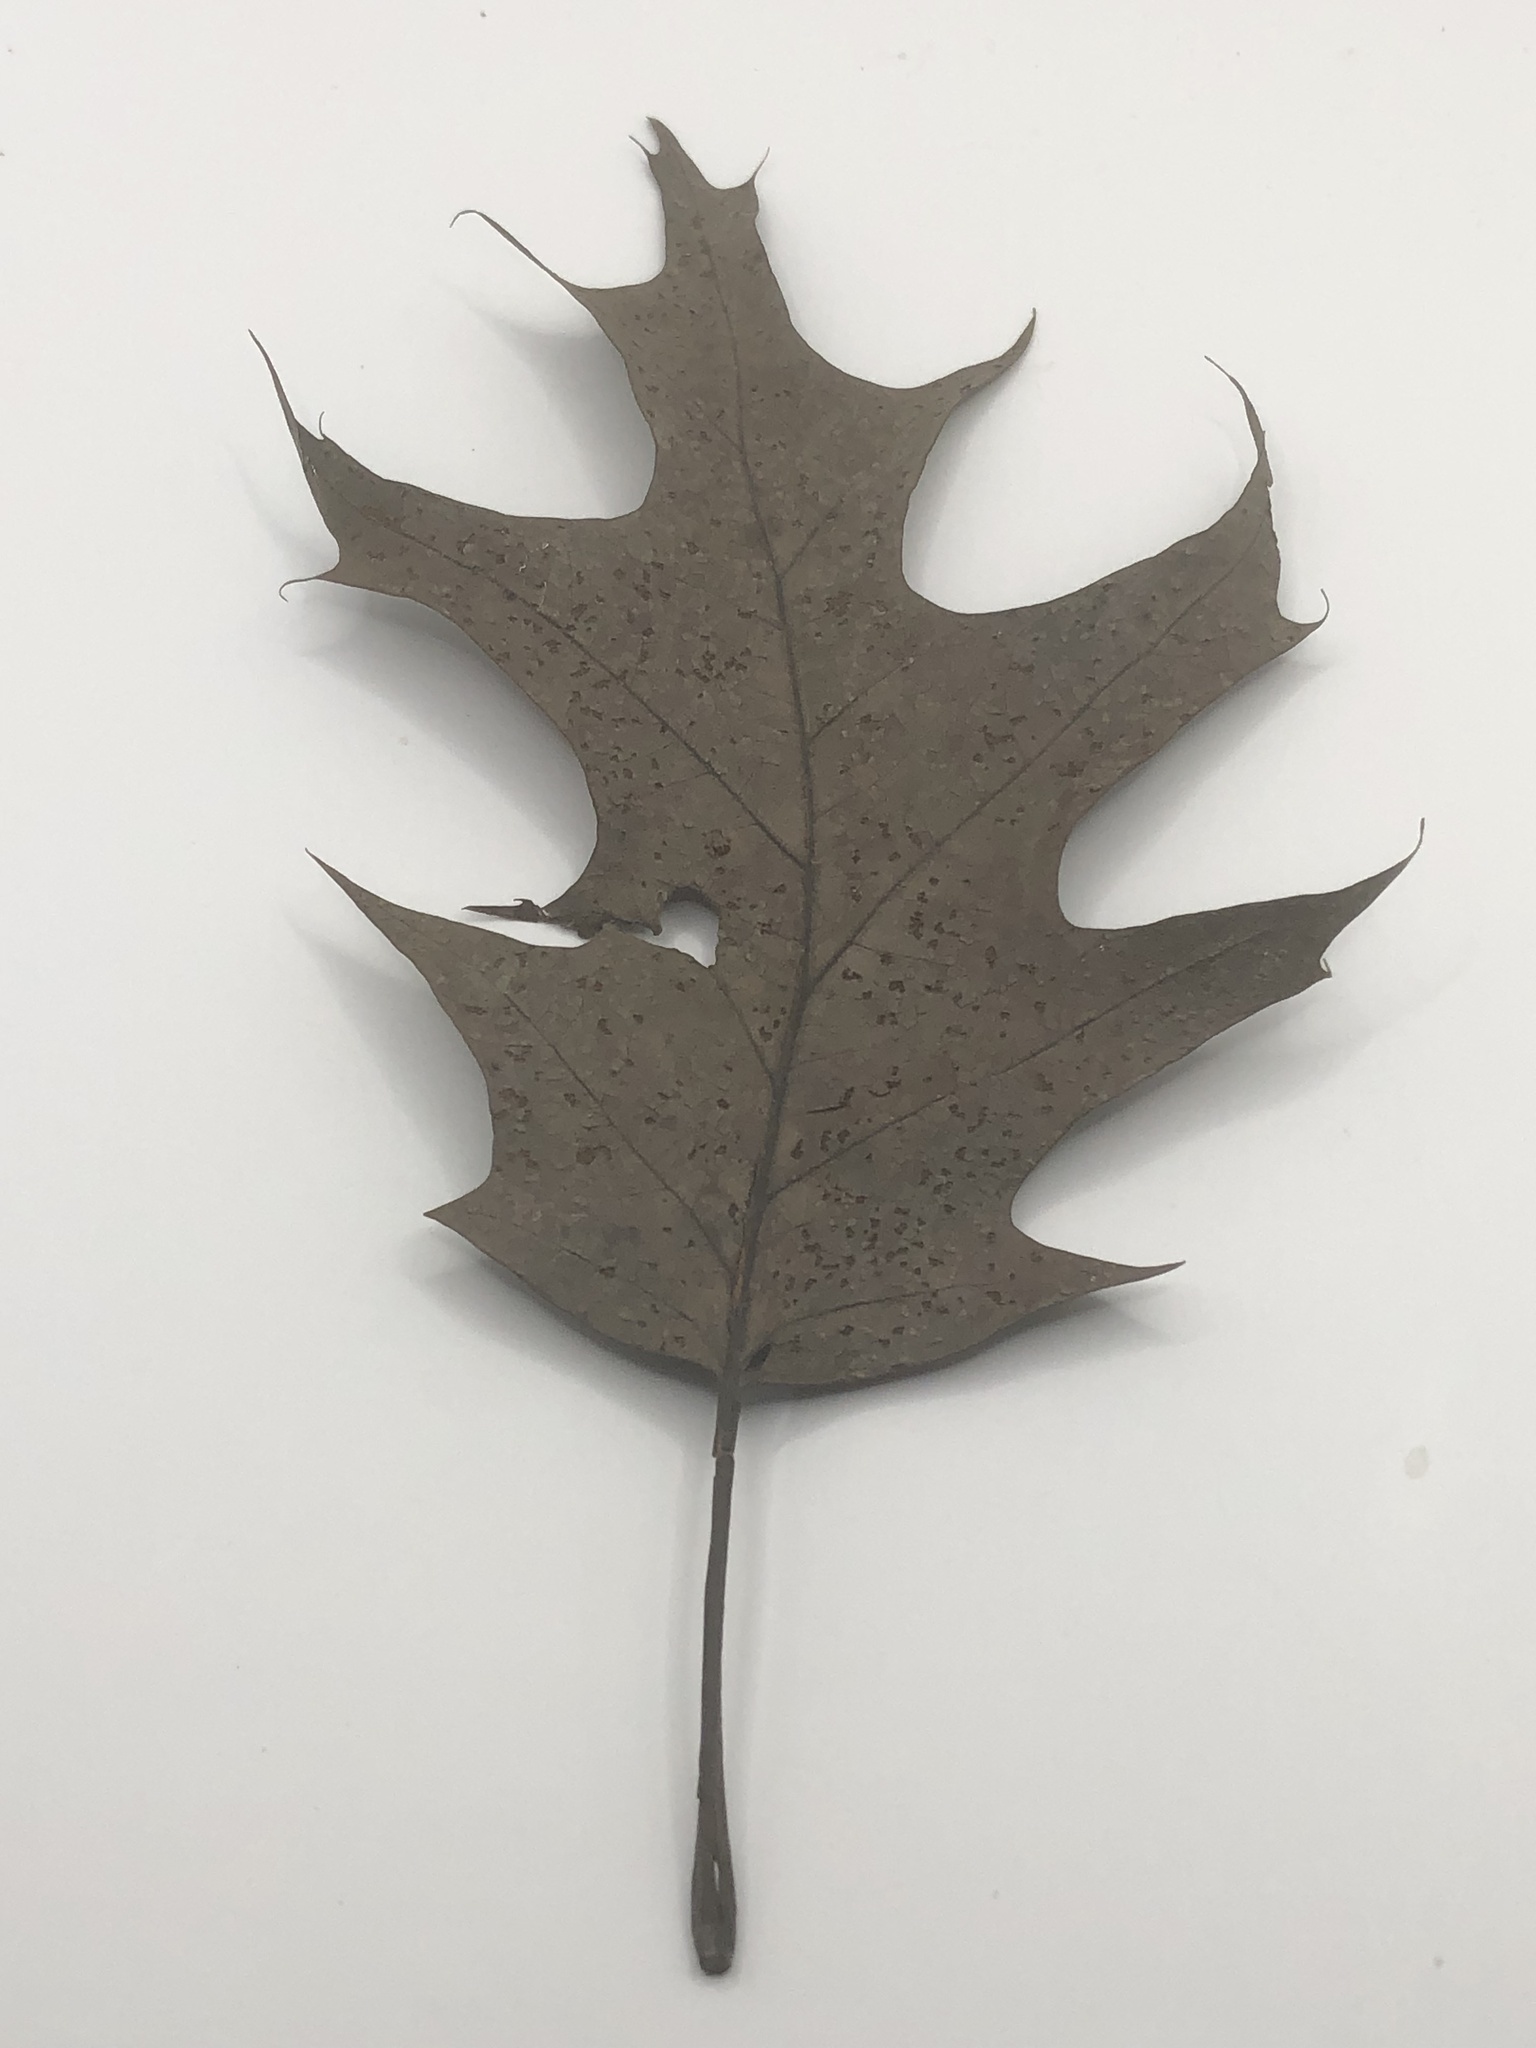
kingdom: Plantae
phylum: Tracheophyta
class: Magnoliopsida
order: Fagales
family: Fagaceae
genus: Quercus
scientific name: Quercus rubra
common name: Red oak
